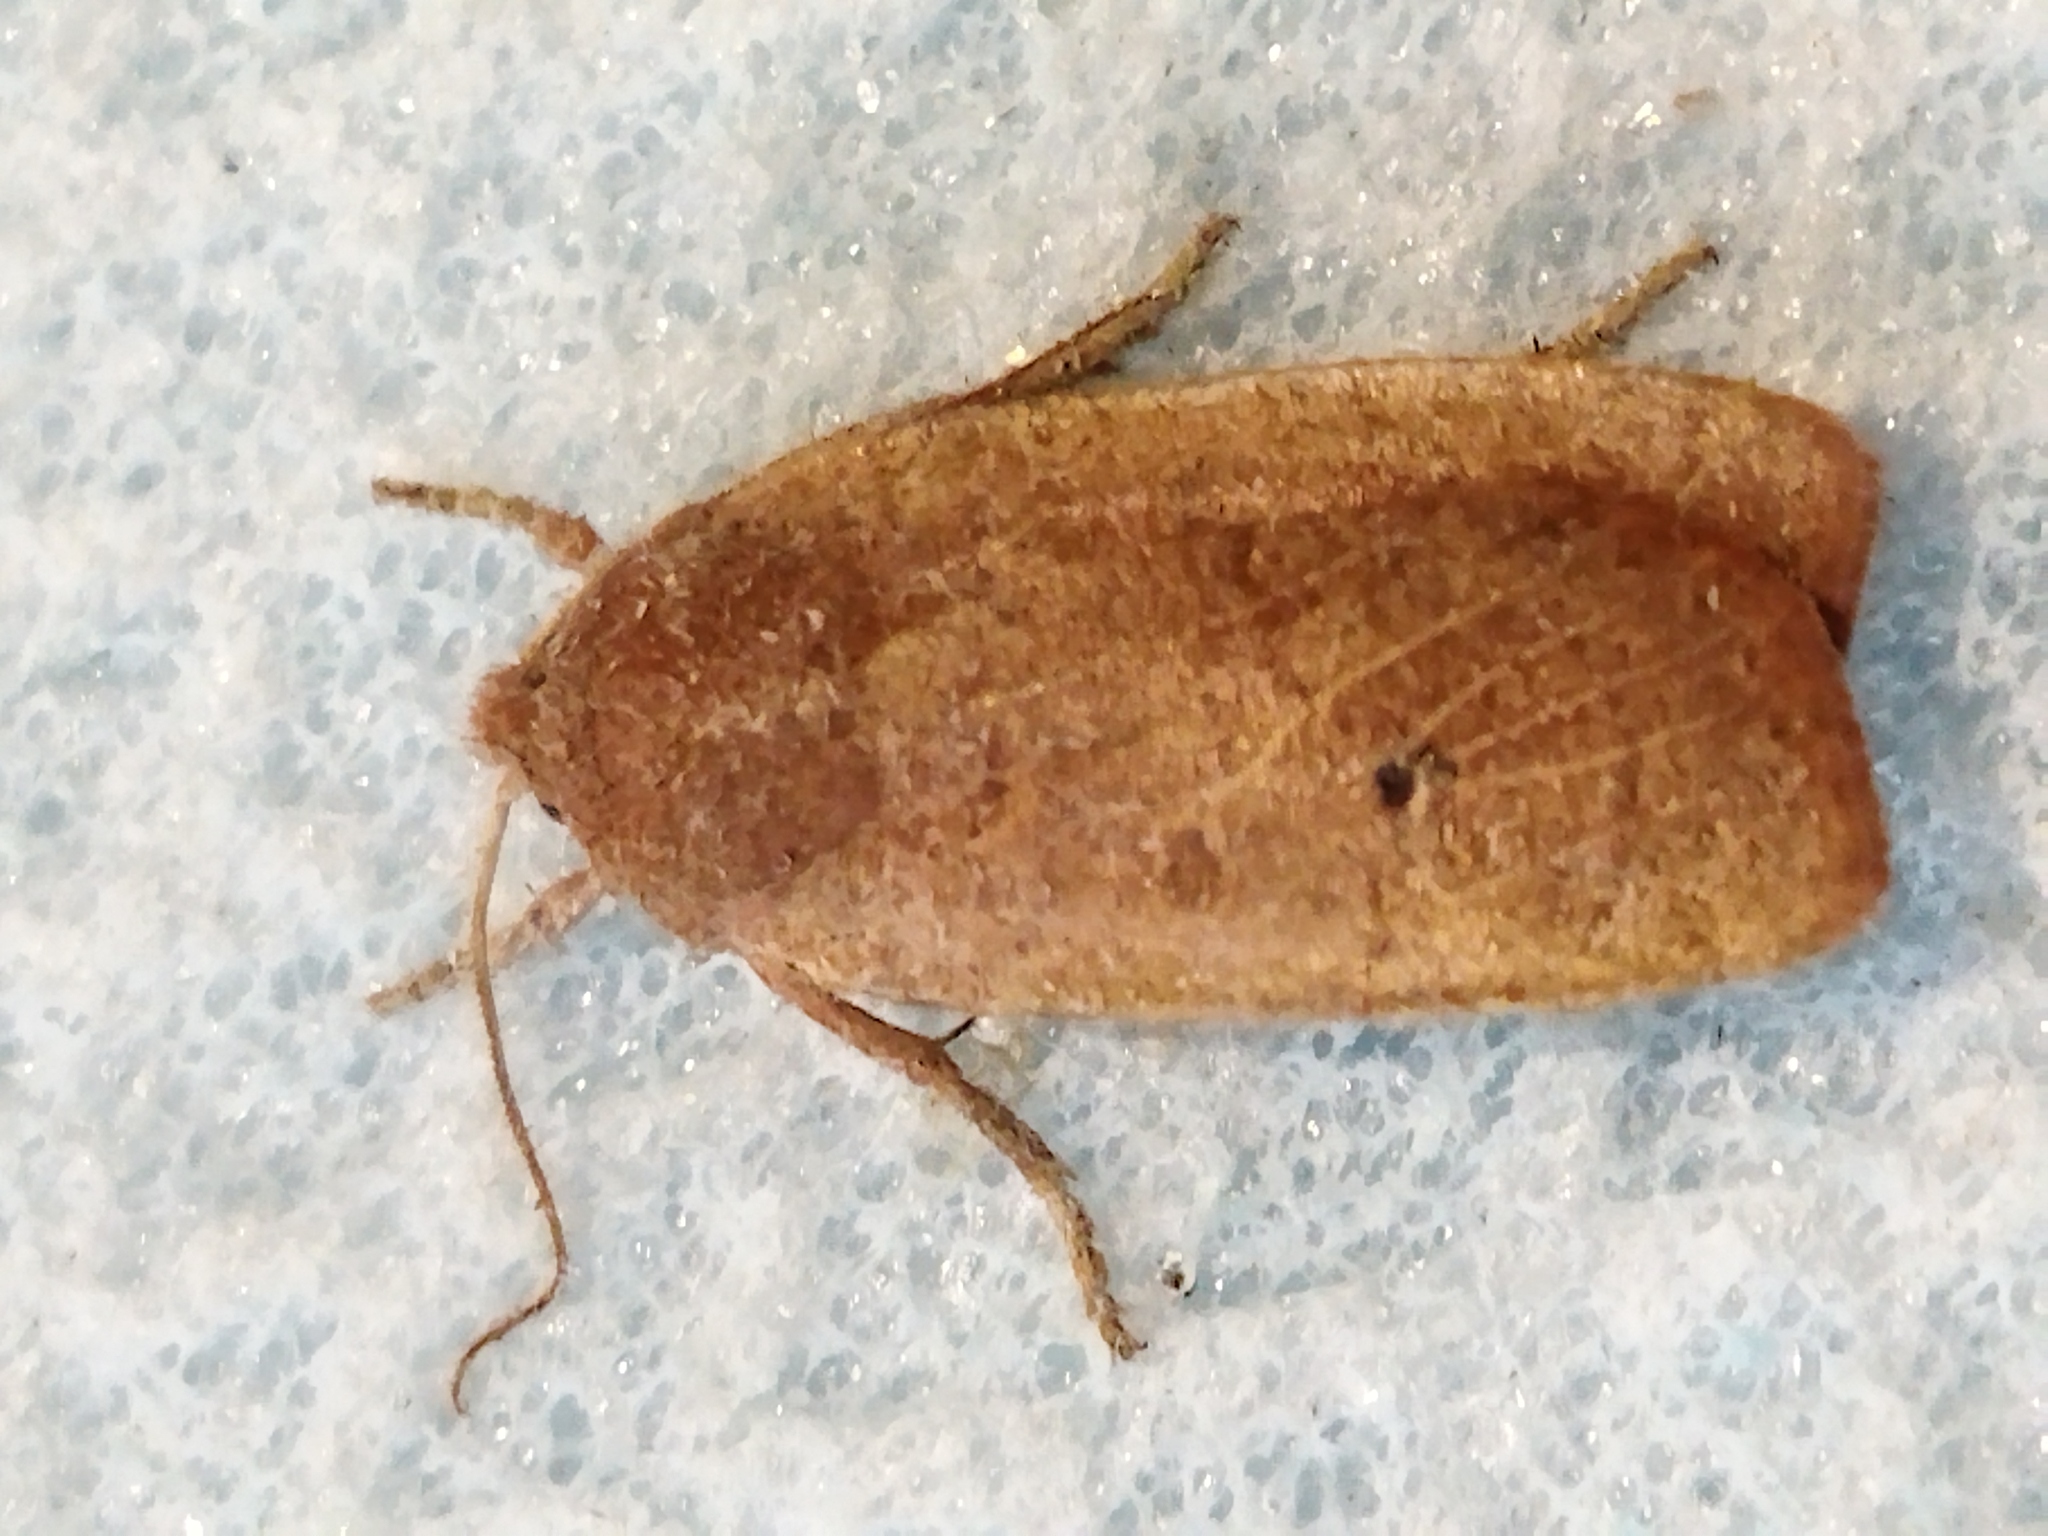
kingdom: Animalia
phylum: Arthropoda
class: Insecta
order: Lepidoptera
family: Noctuidae
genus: Conistra
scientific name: Conistra ragusae
